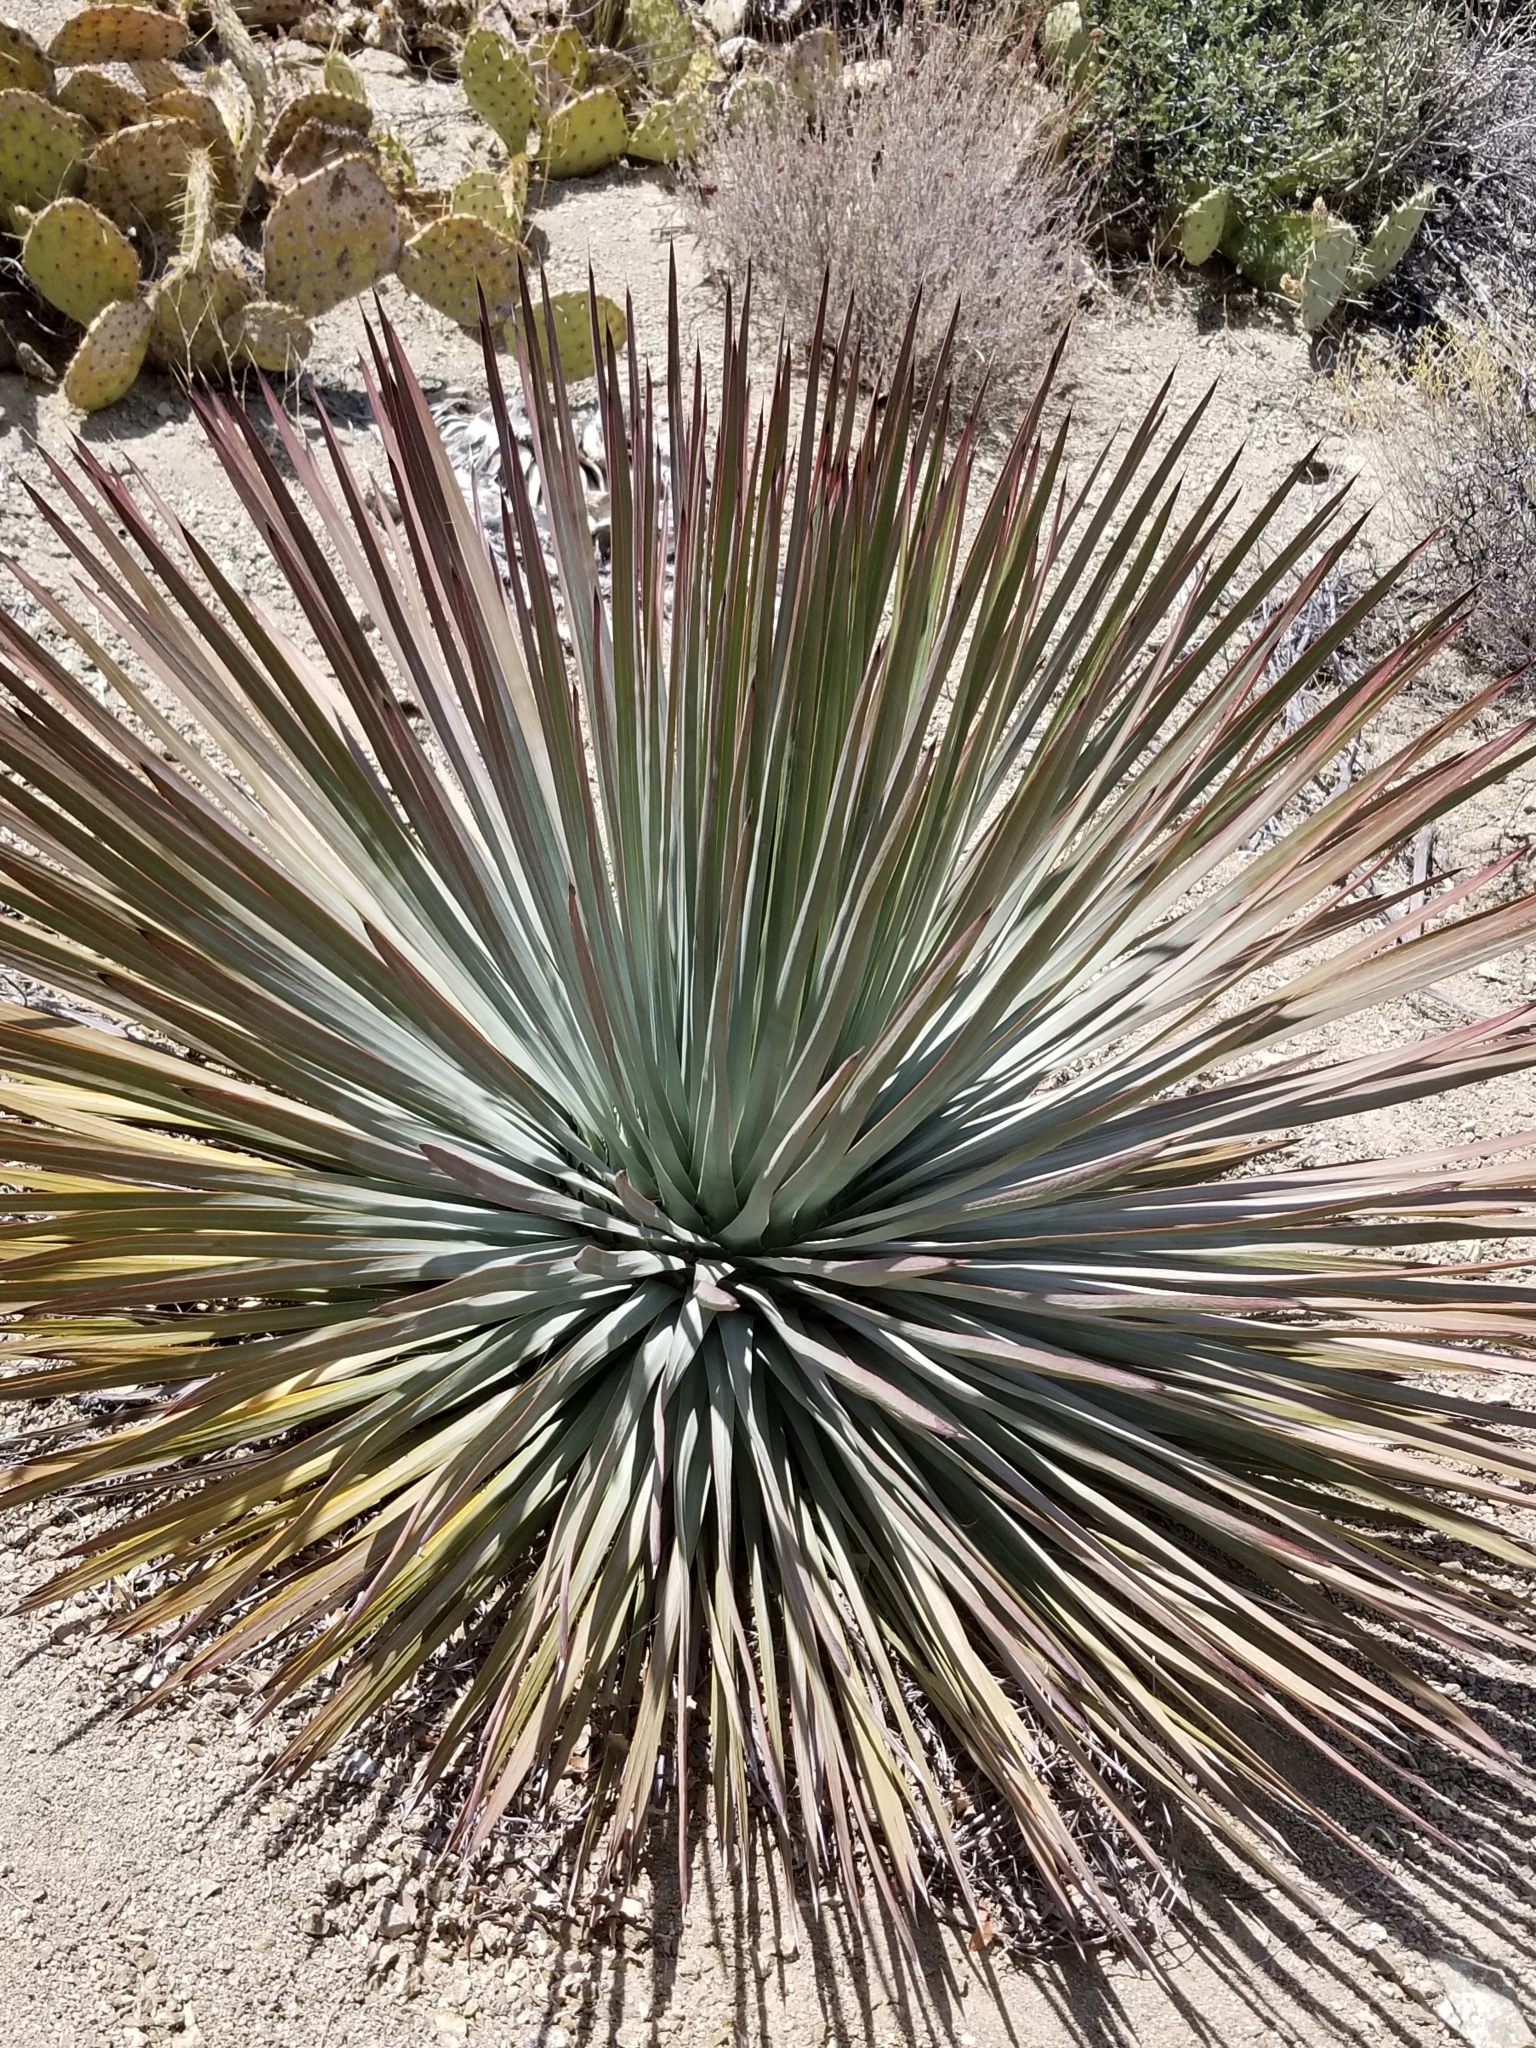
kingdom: Plantae
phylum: Tracheophyta
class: Liliopsida
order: Asparagales
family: Asparagaceae
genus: Hesperoyucca
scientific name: Hesperoyucca whipplei
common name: Our lord's-candle
